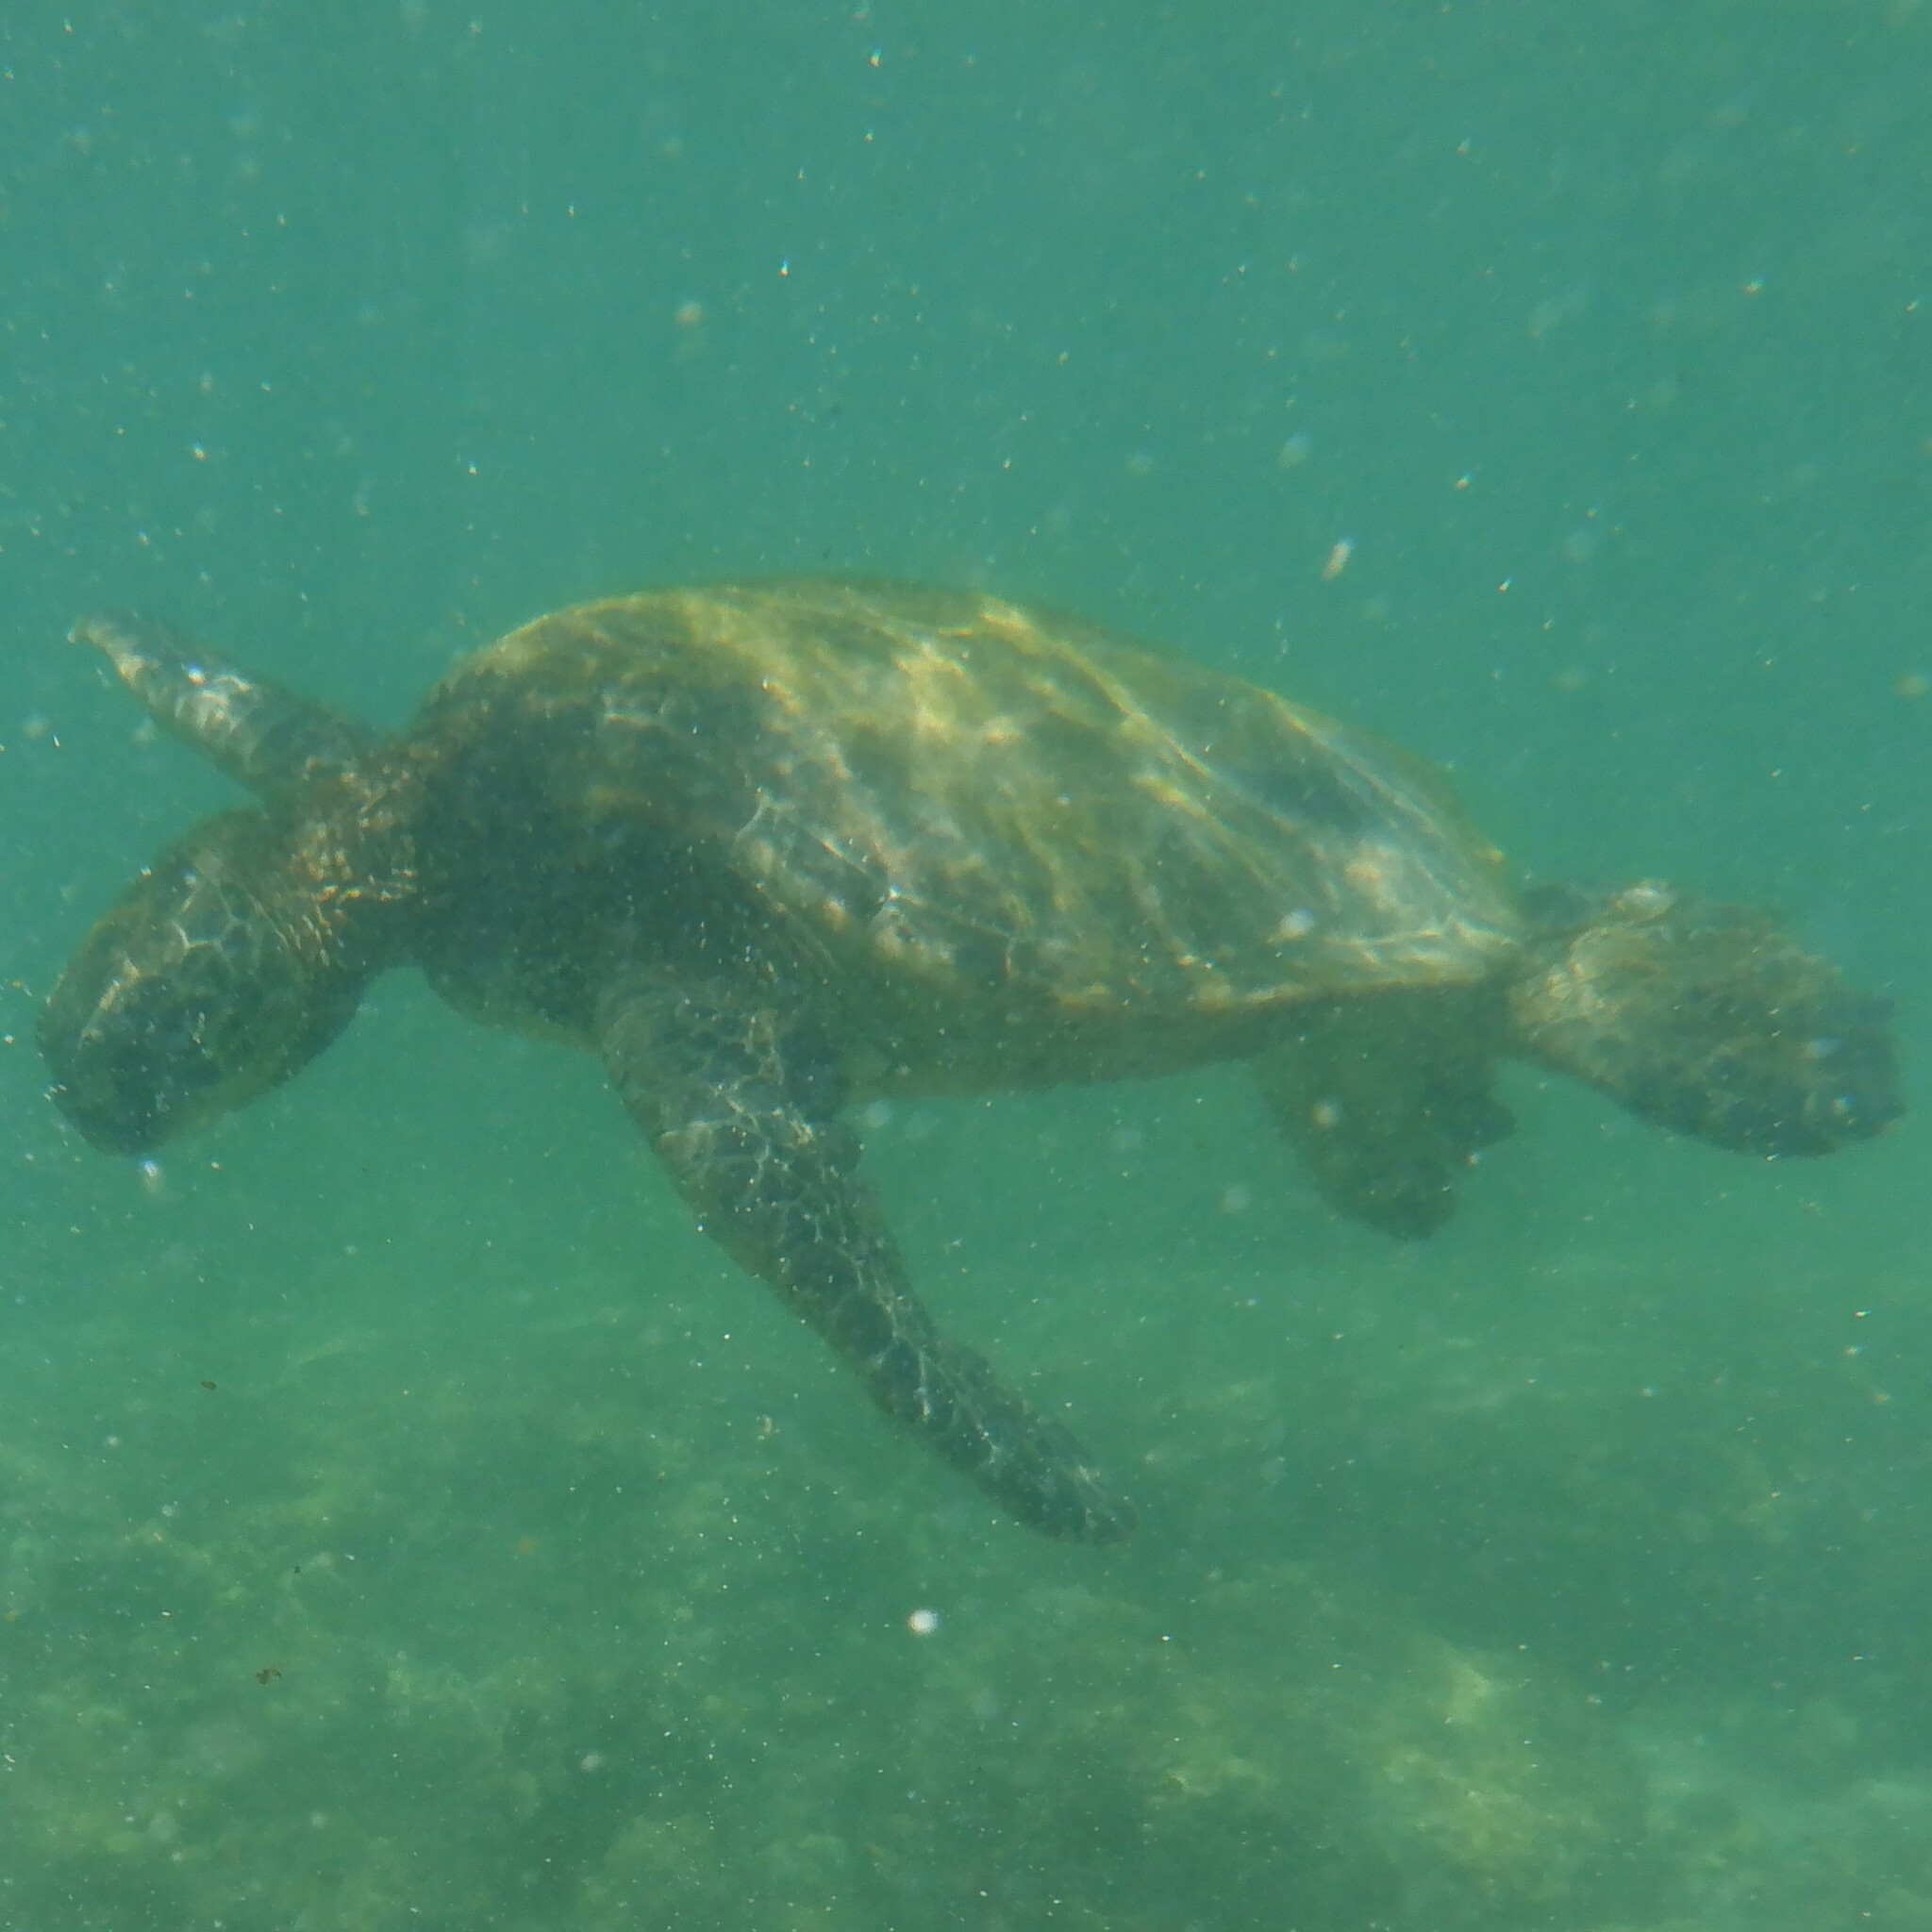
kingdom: Animalia
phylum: Chordata
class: Testudines
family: Cheloniidae
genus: Chelonia
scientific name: Chelonia mydas
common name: Green turtle
